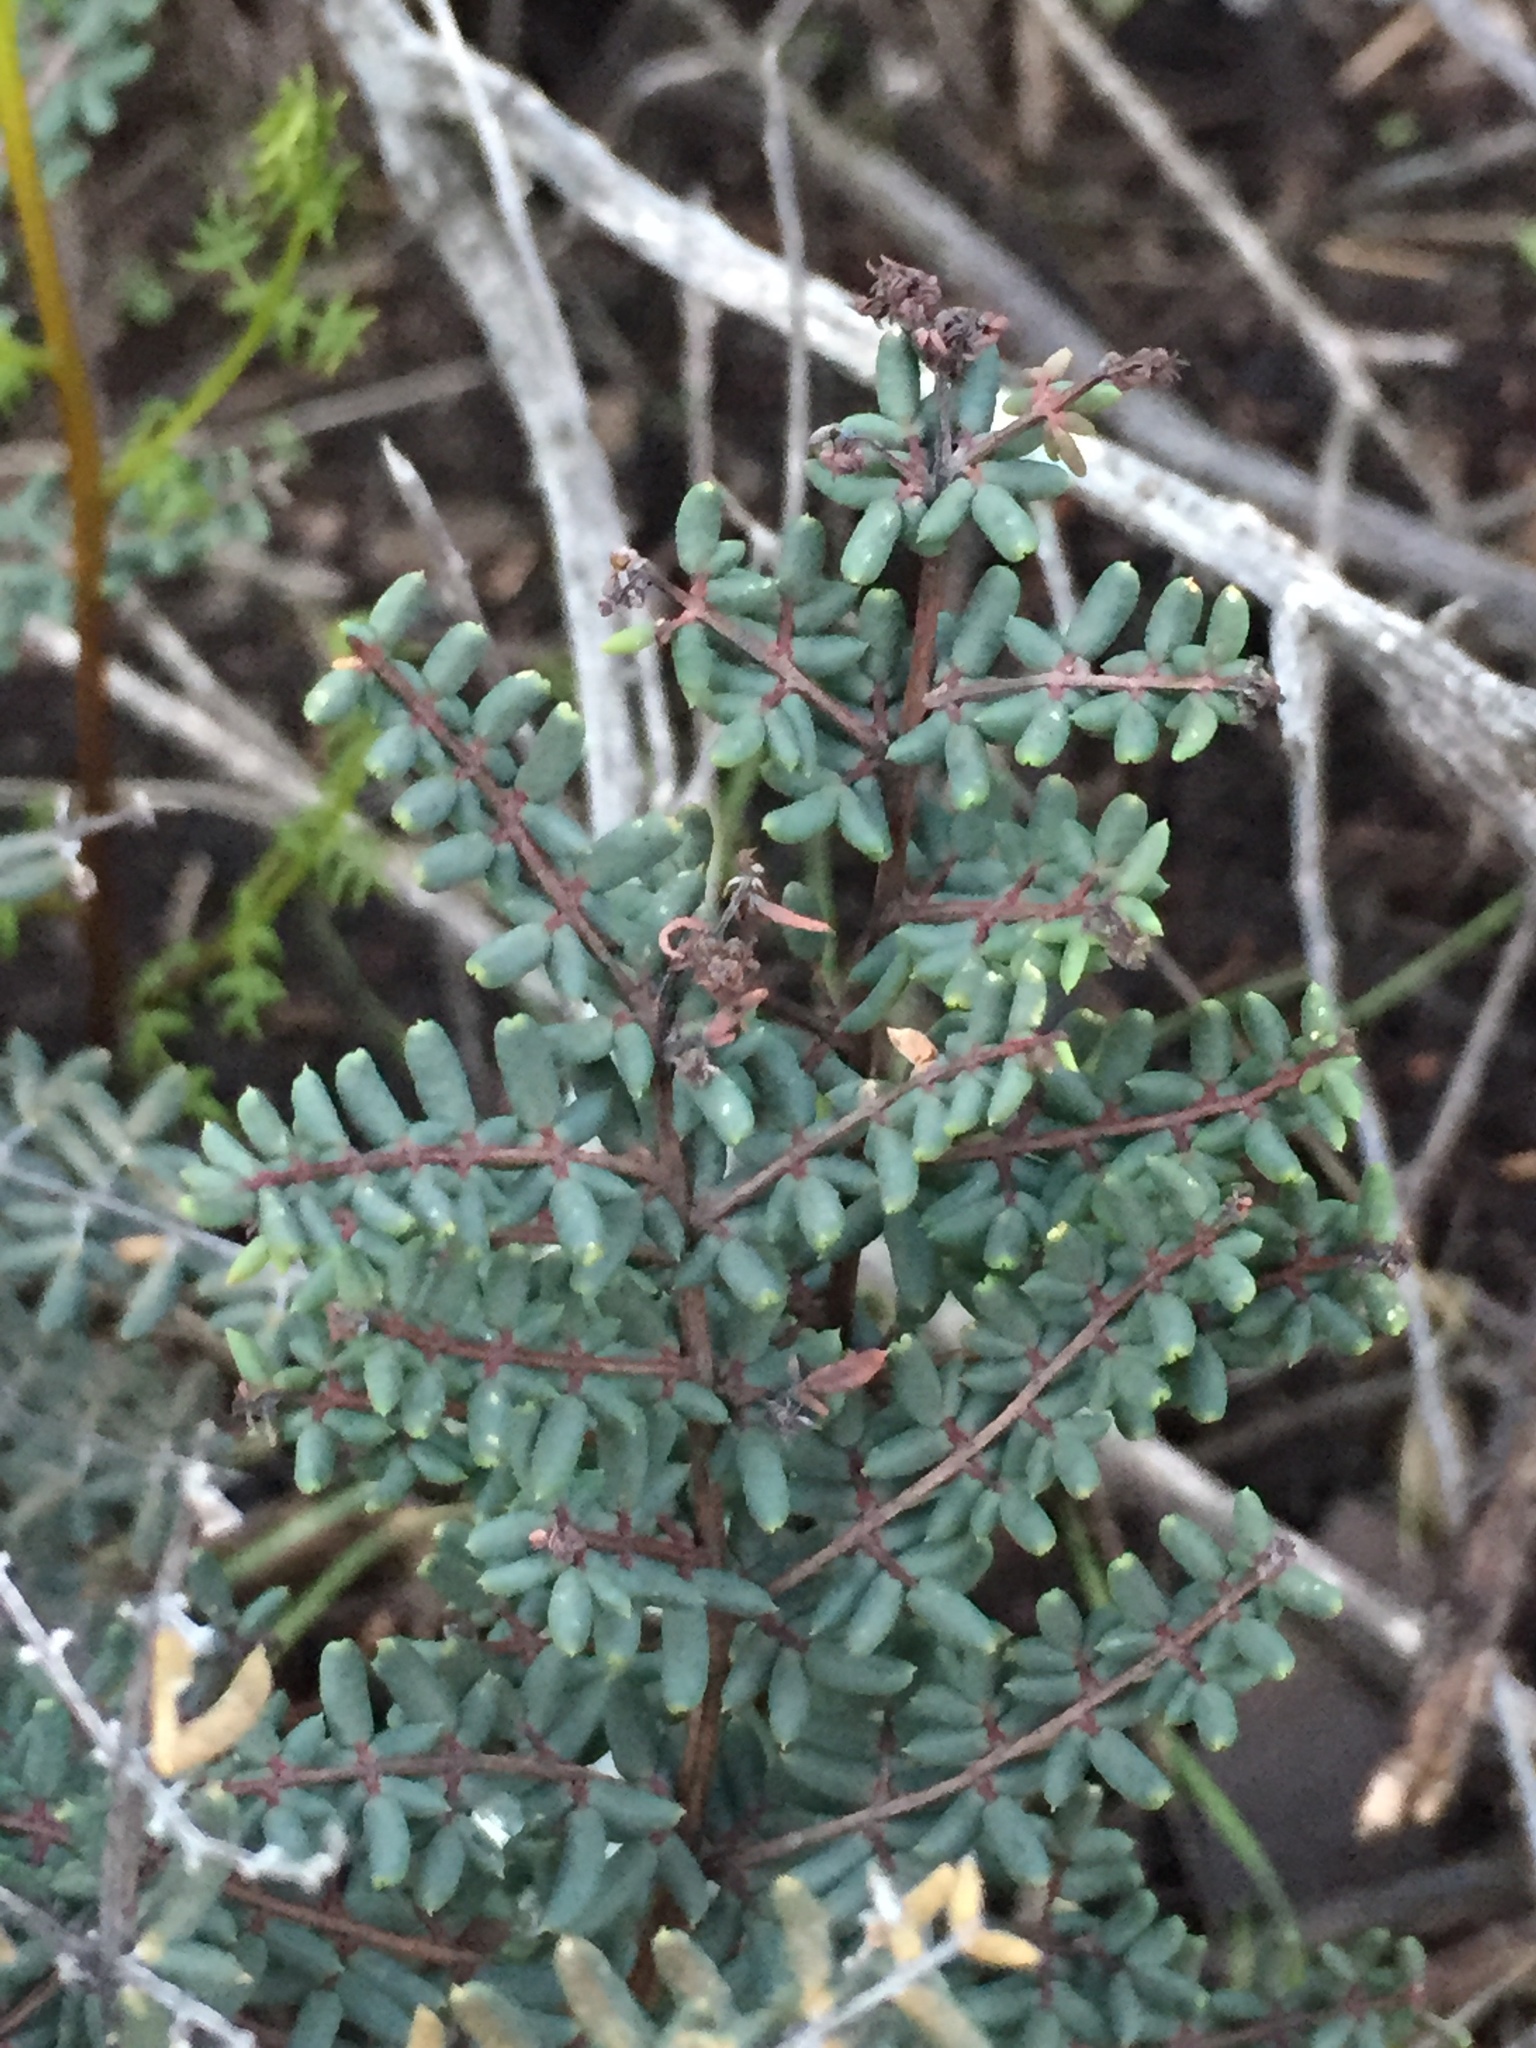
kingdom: Plantae
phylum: Tracheophyta
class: Polypodiopsida
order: Polypodiales
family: Pteridaceae
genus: Pellaea
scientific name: Pellaea mucronata
